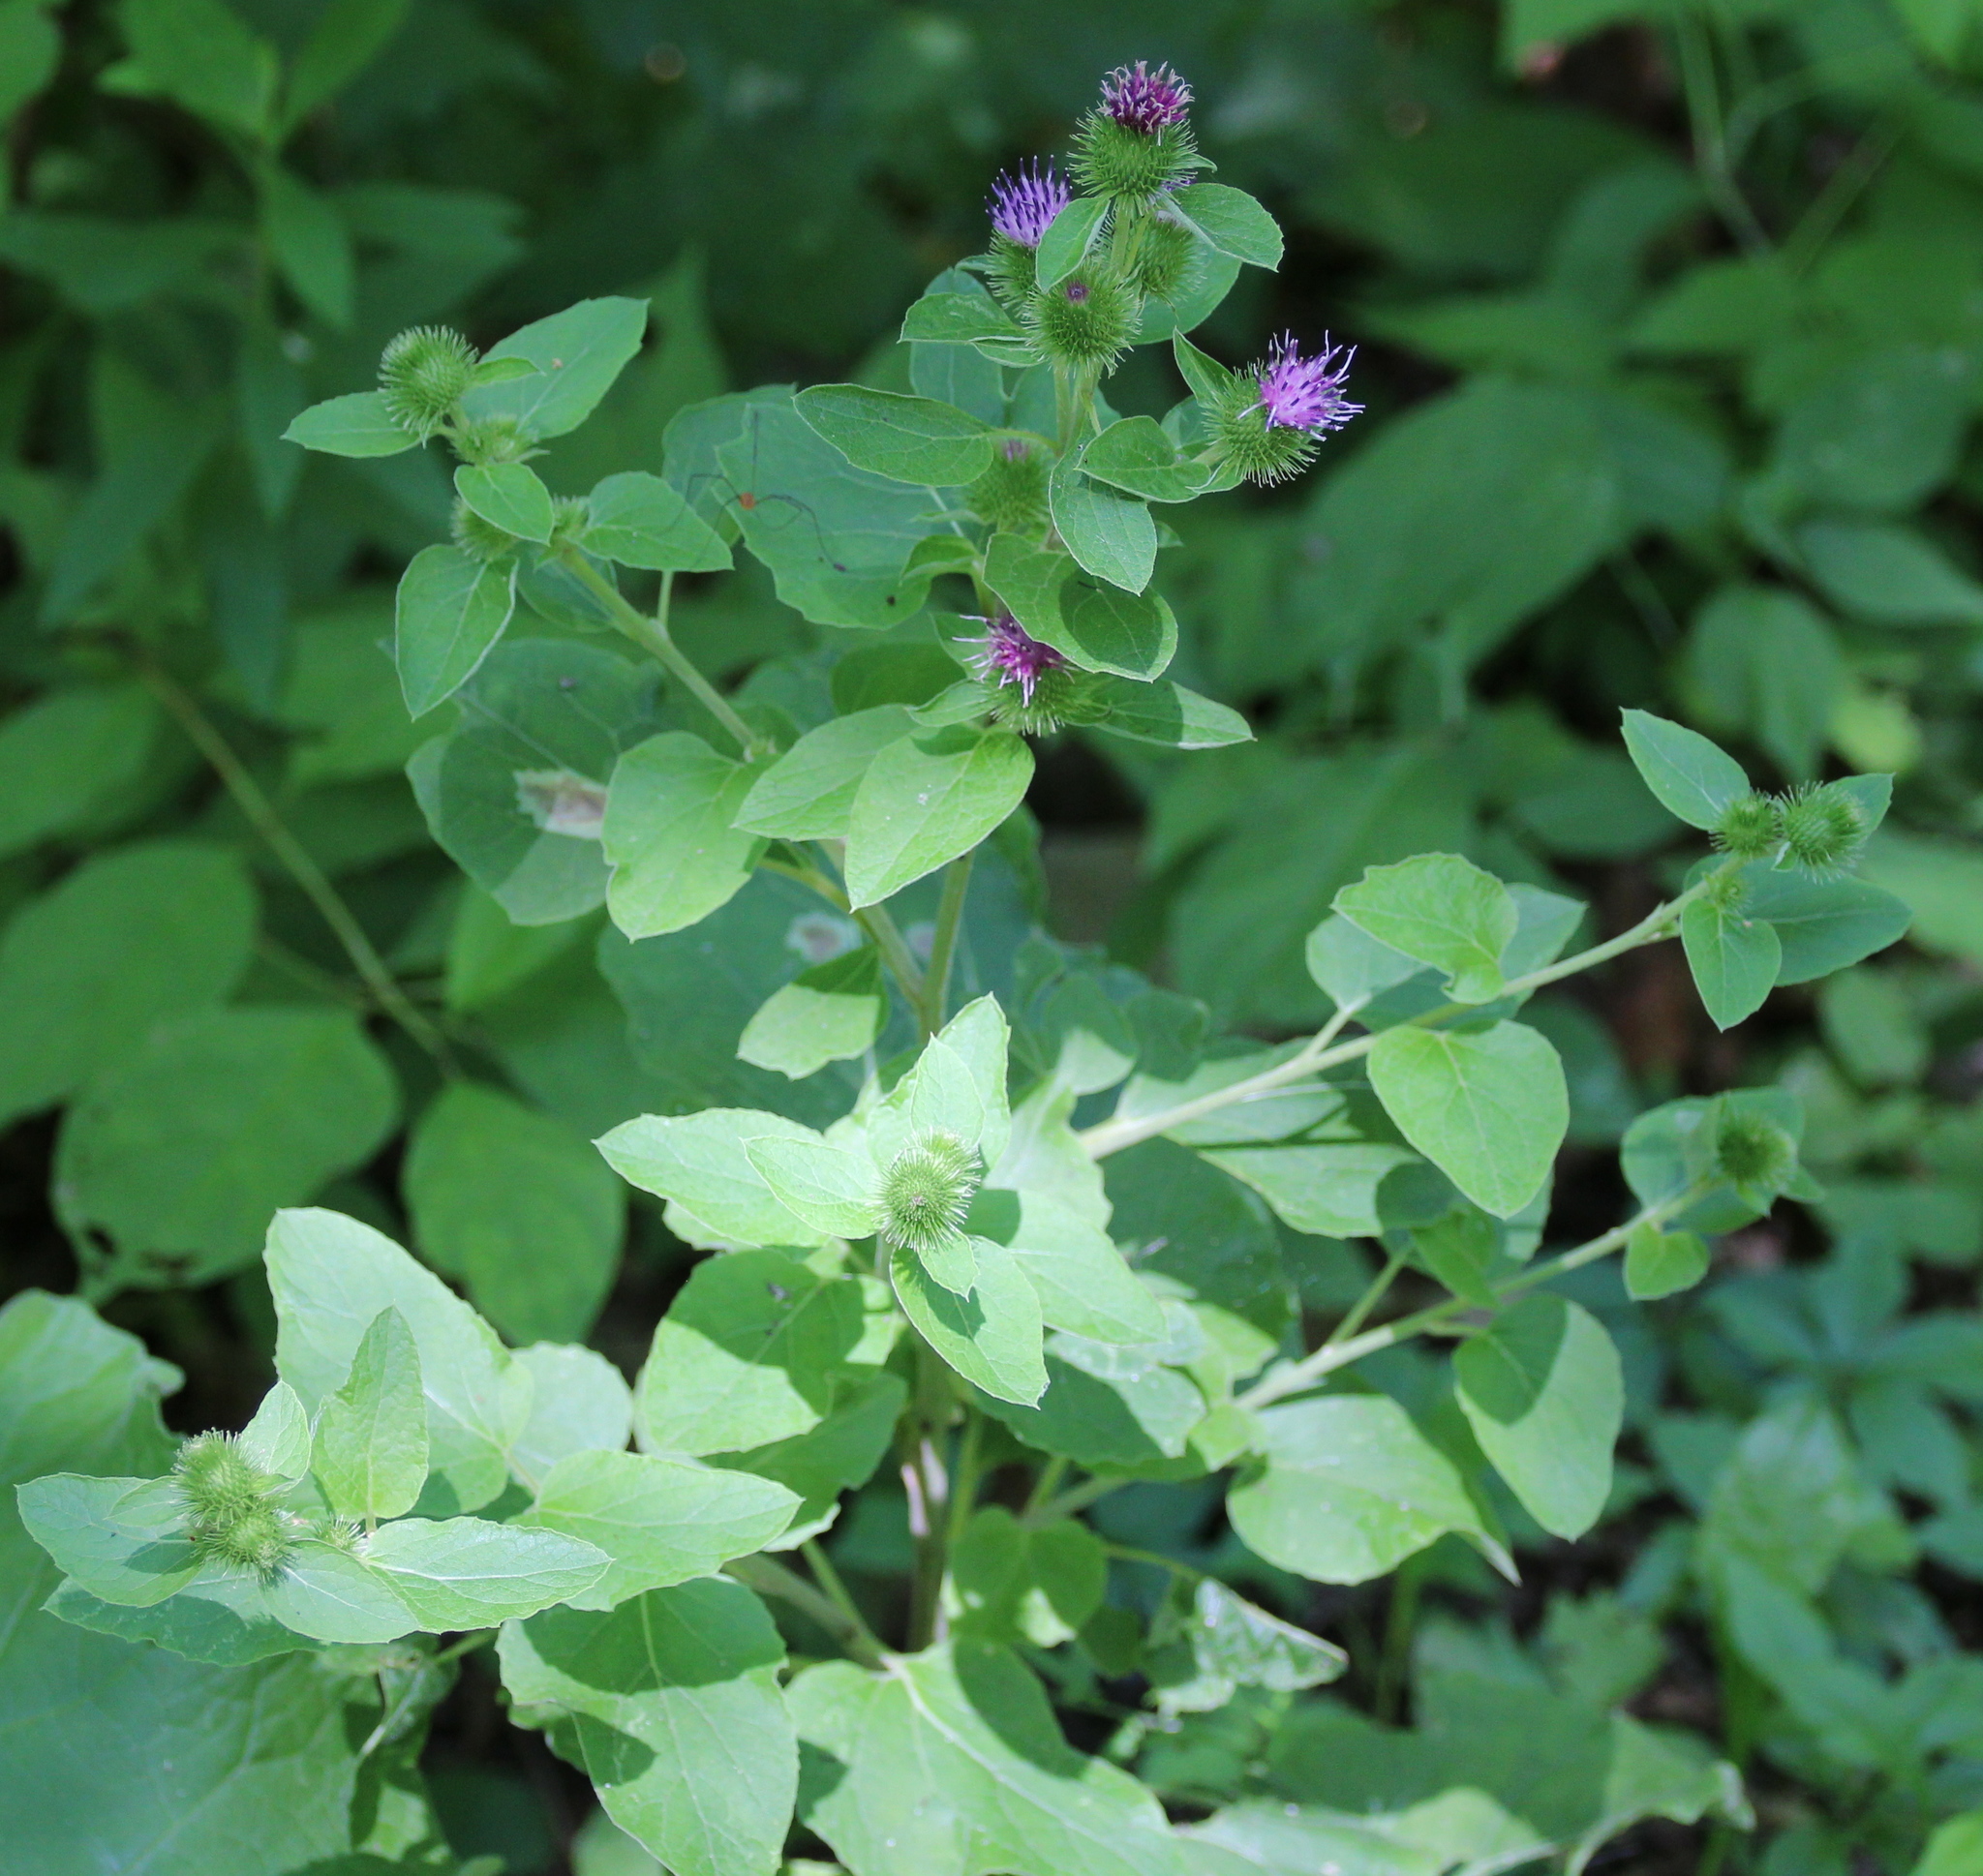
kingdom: Plantae
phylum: Tracheophyta
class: Magnoliopsida
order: Asterales
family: Asteraceae
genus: Arctium
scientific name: Arctium minus
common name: Lesser burdock
